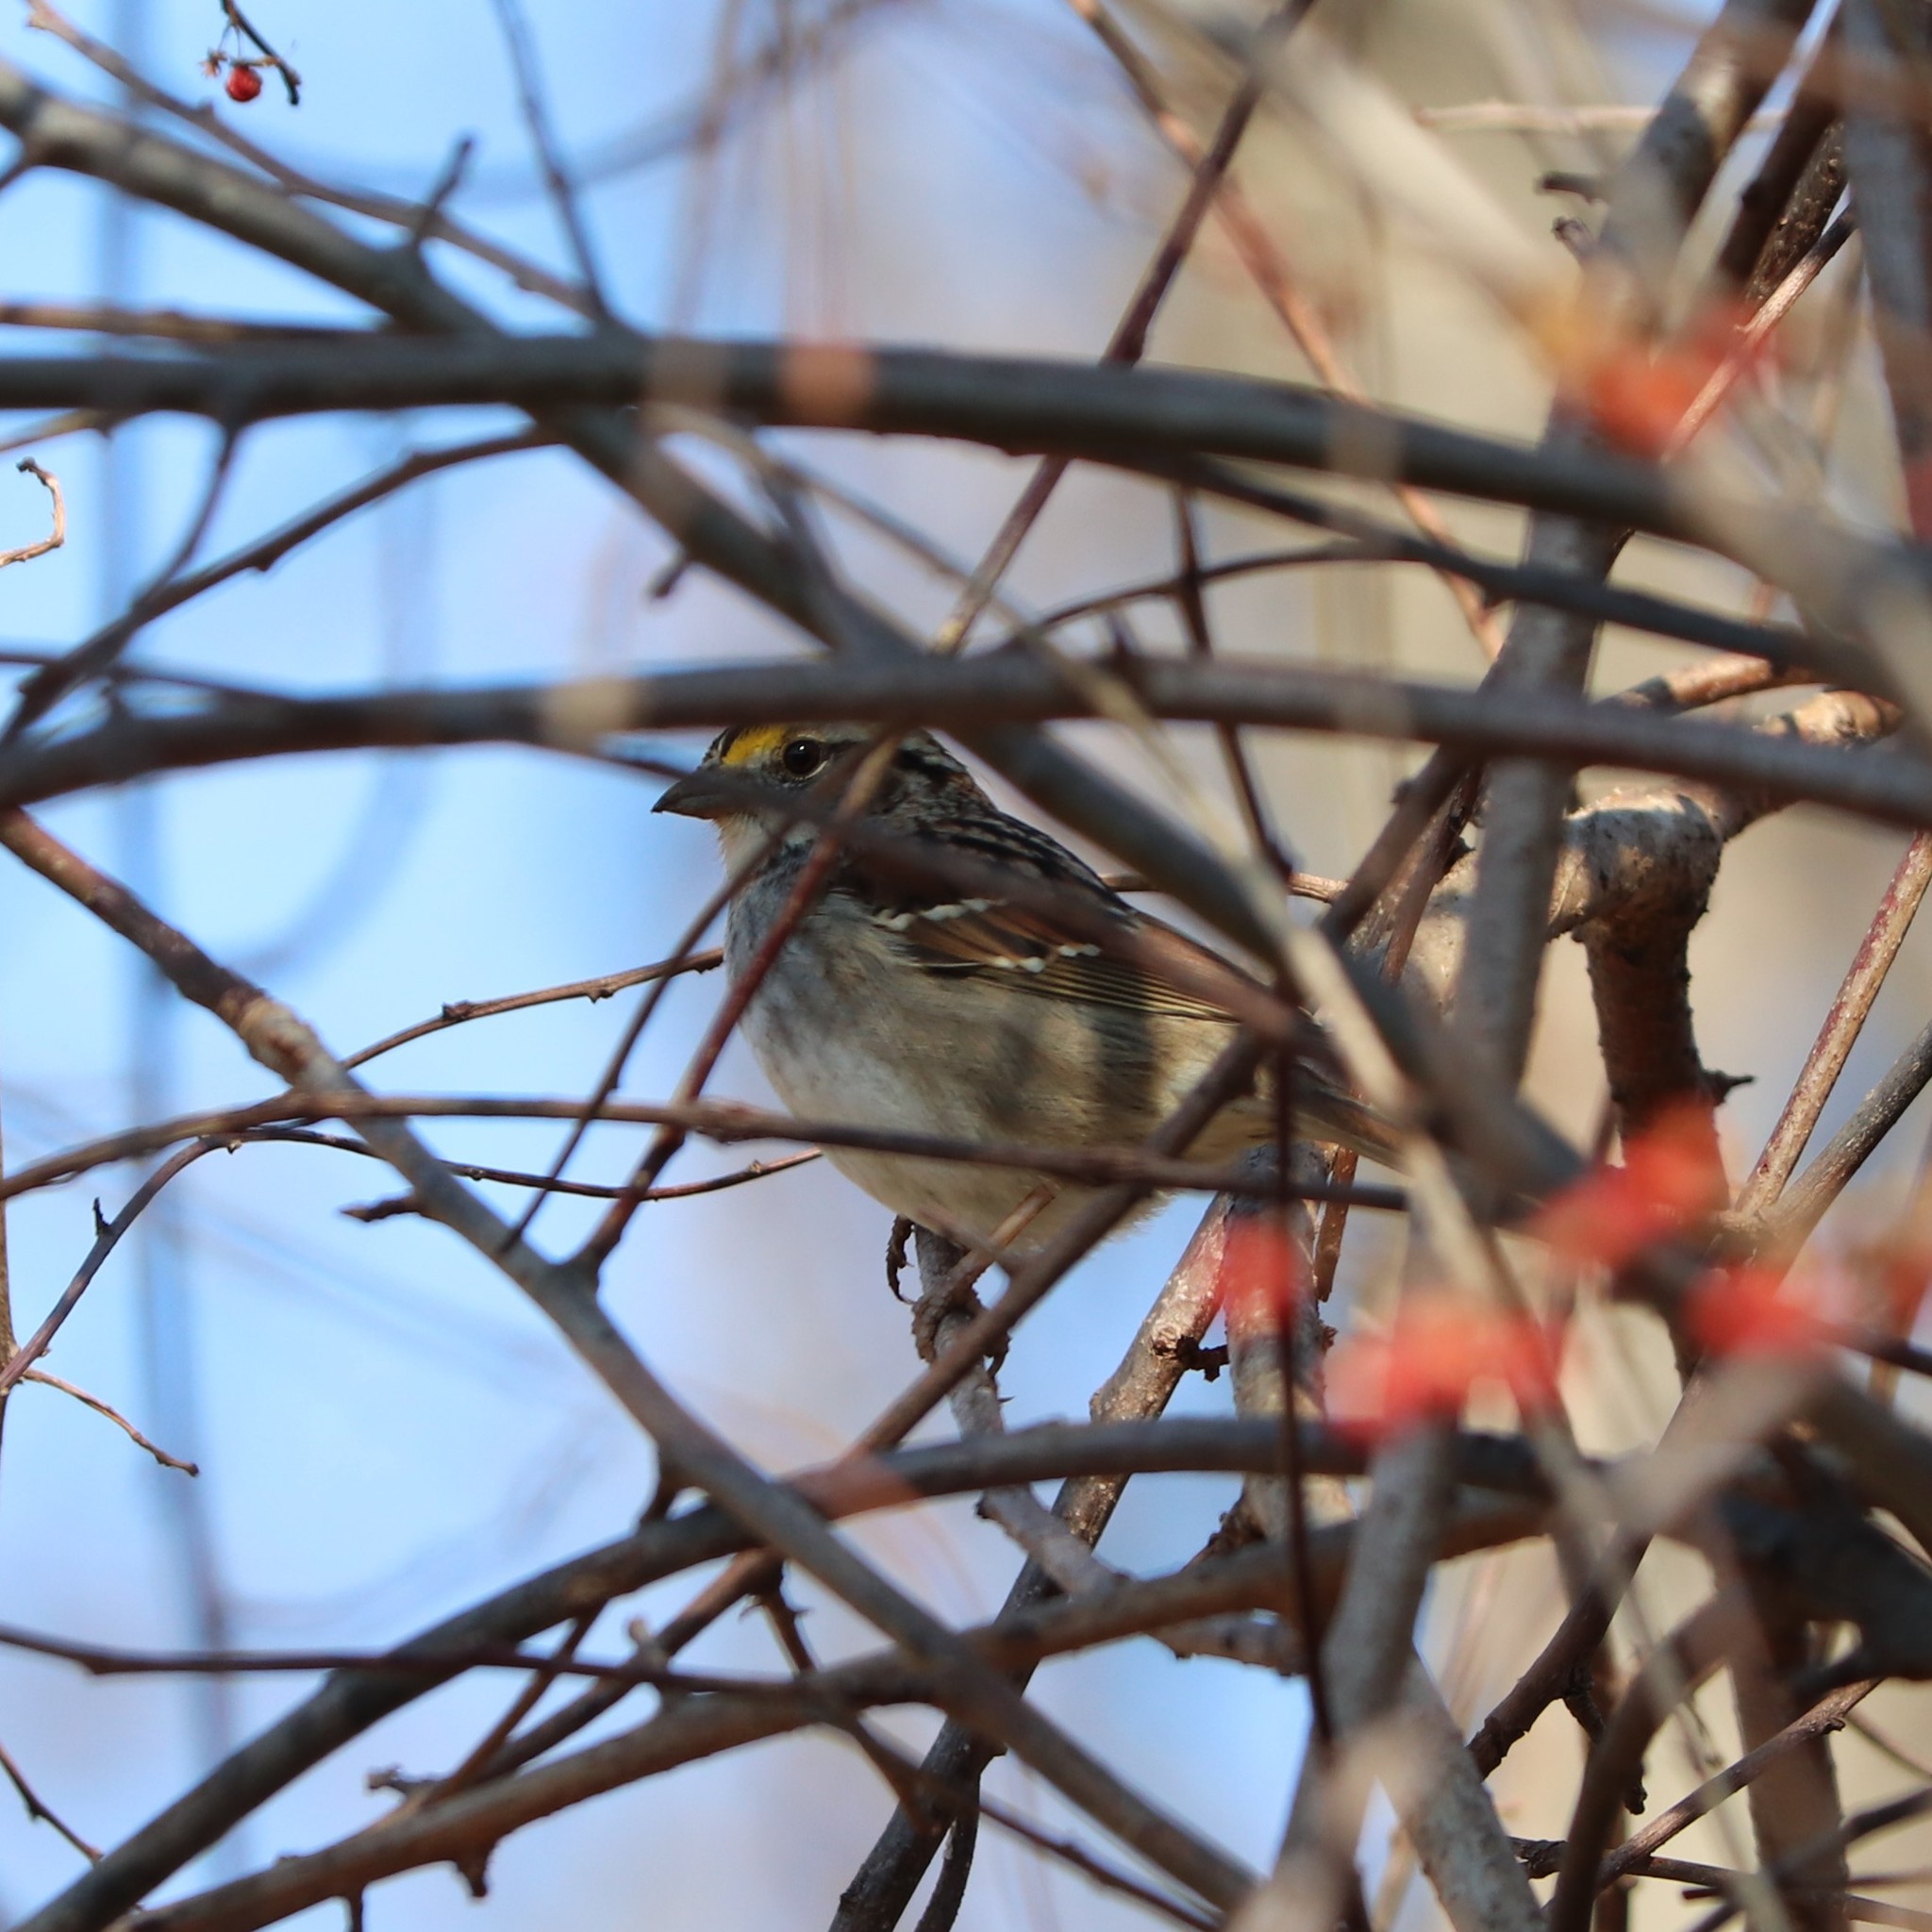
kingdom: Animalia
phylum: Chordata
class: Aves
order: Passeriformes
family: Passerellidae
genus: Zonotrichia
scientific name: Zonotrichia albicollis
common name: White-throated sparrow
